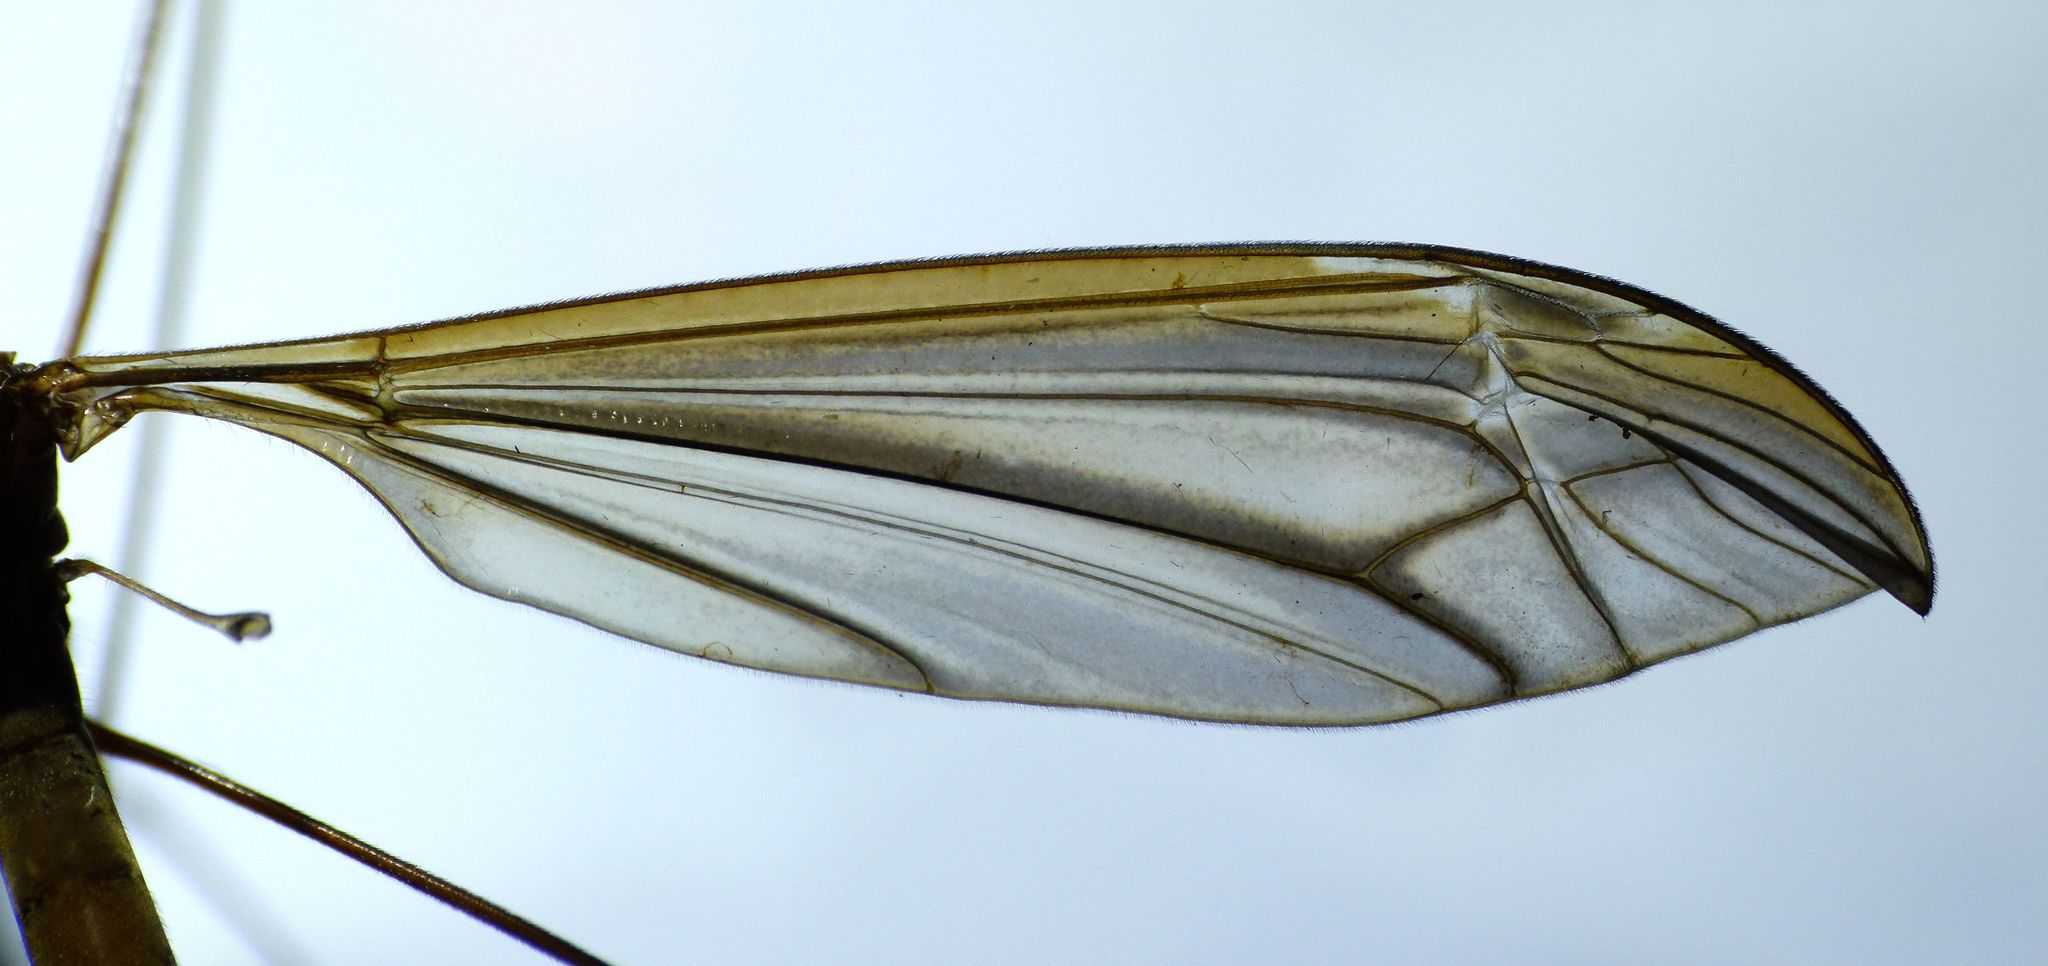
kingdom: Animalia
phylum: Arthropoda
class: Insecta
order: Diptera
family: Tipulidae
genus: Austrotipula
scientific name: Austrotipula hudsoni
